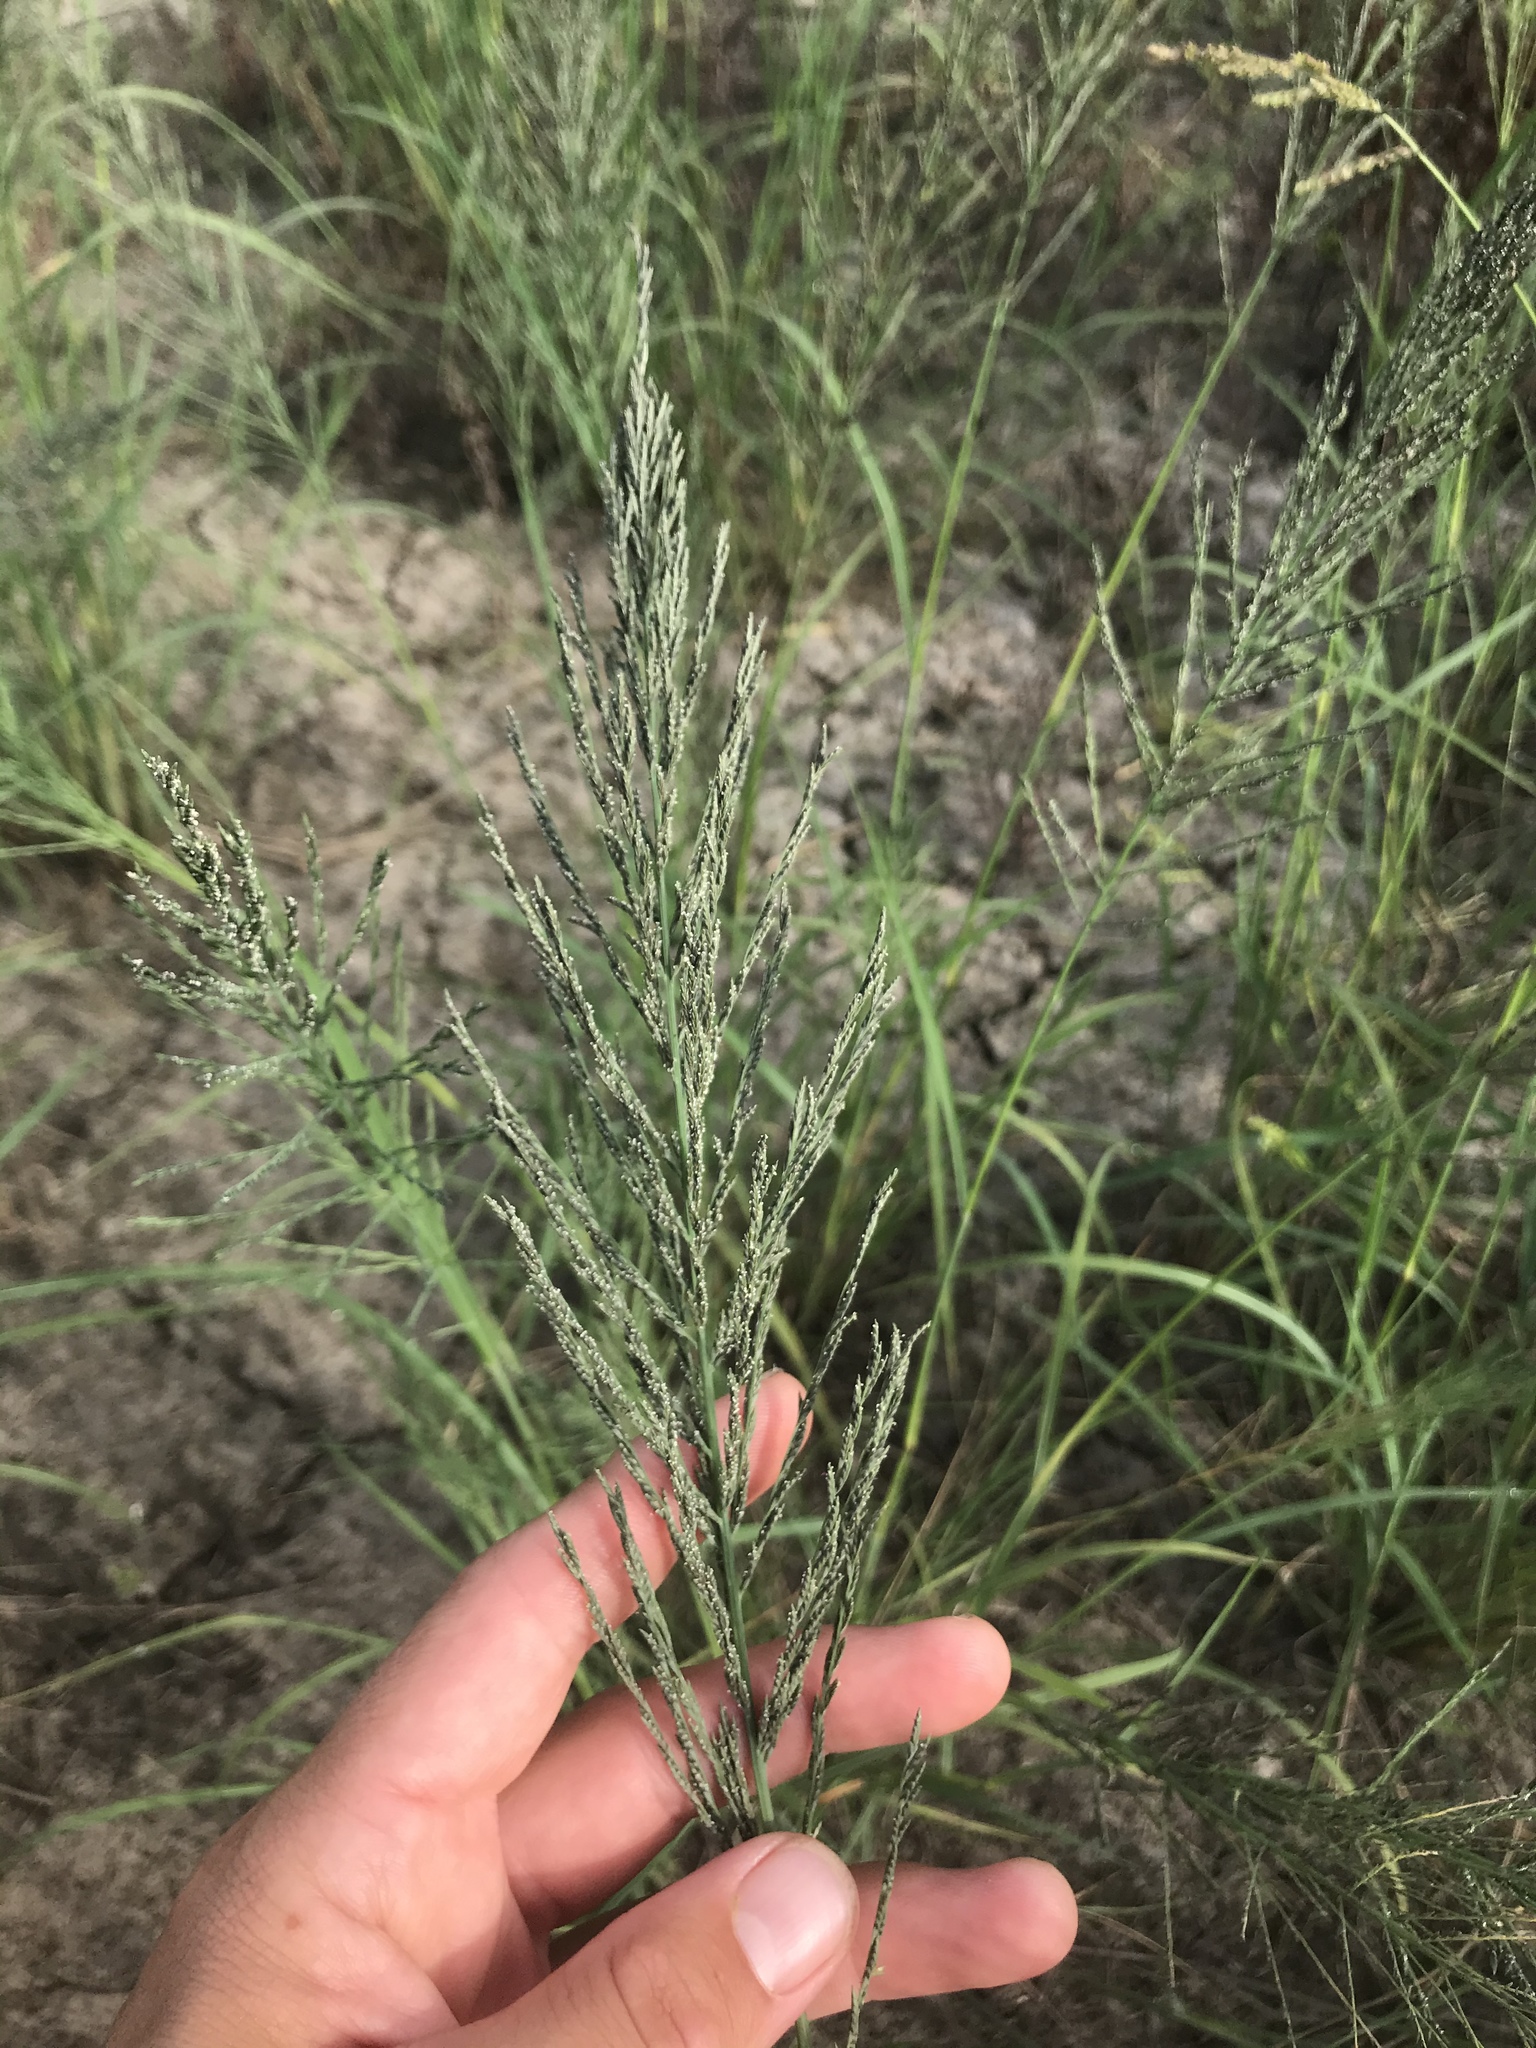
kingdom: Plantae
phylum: Tracheophyta
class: Liliopsida
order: Poales
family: Poaceae
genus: Diplachne
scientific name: Diplachne fusca
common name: Brown beetle grass
